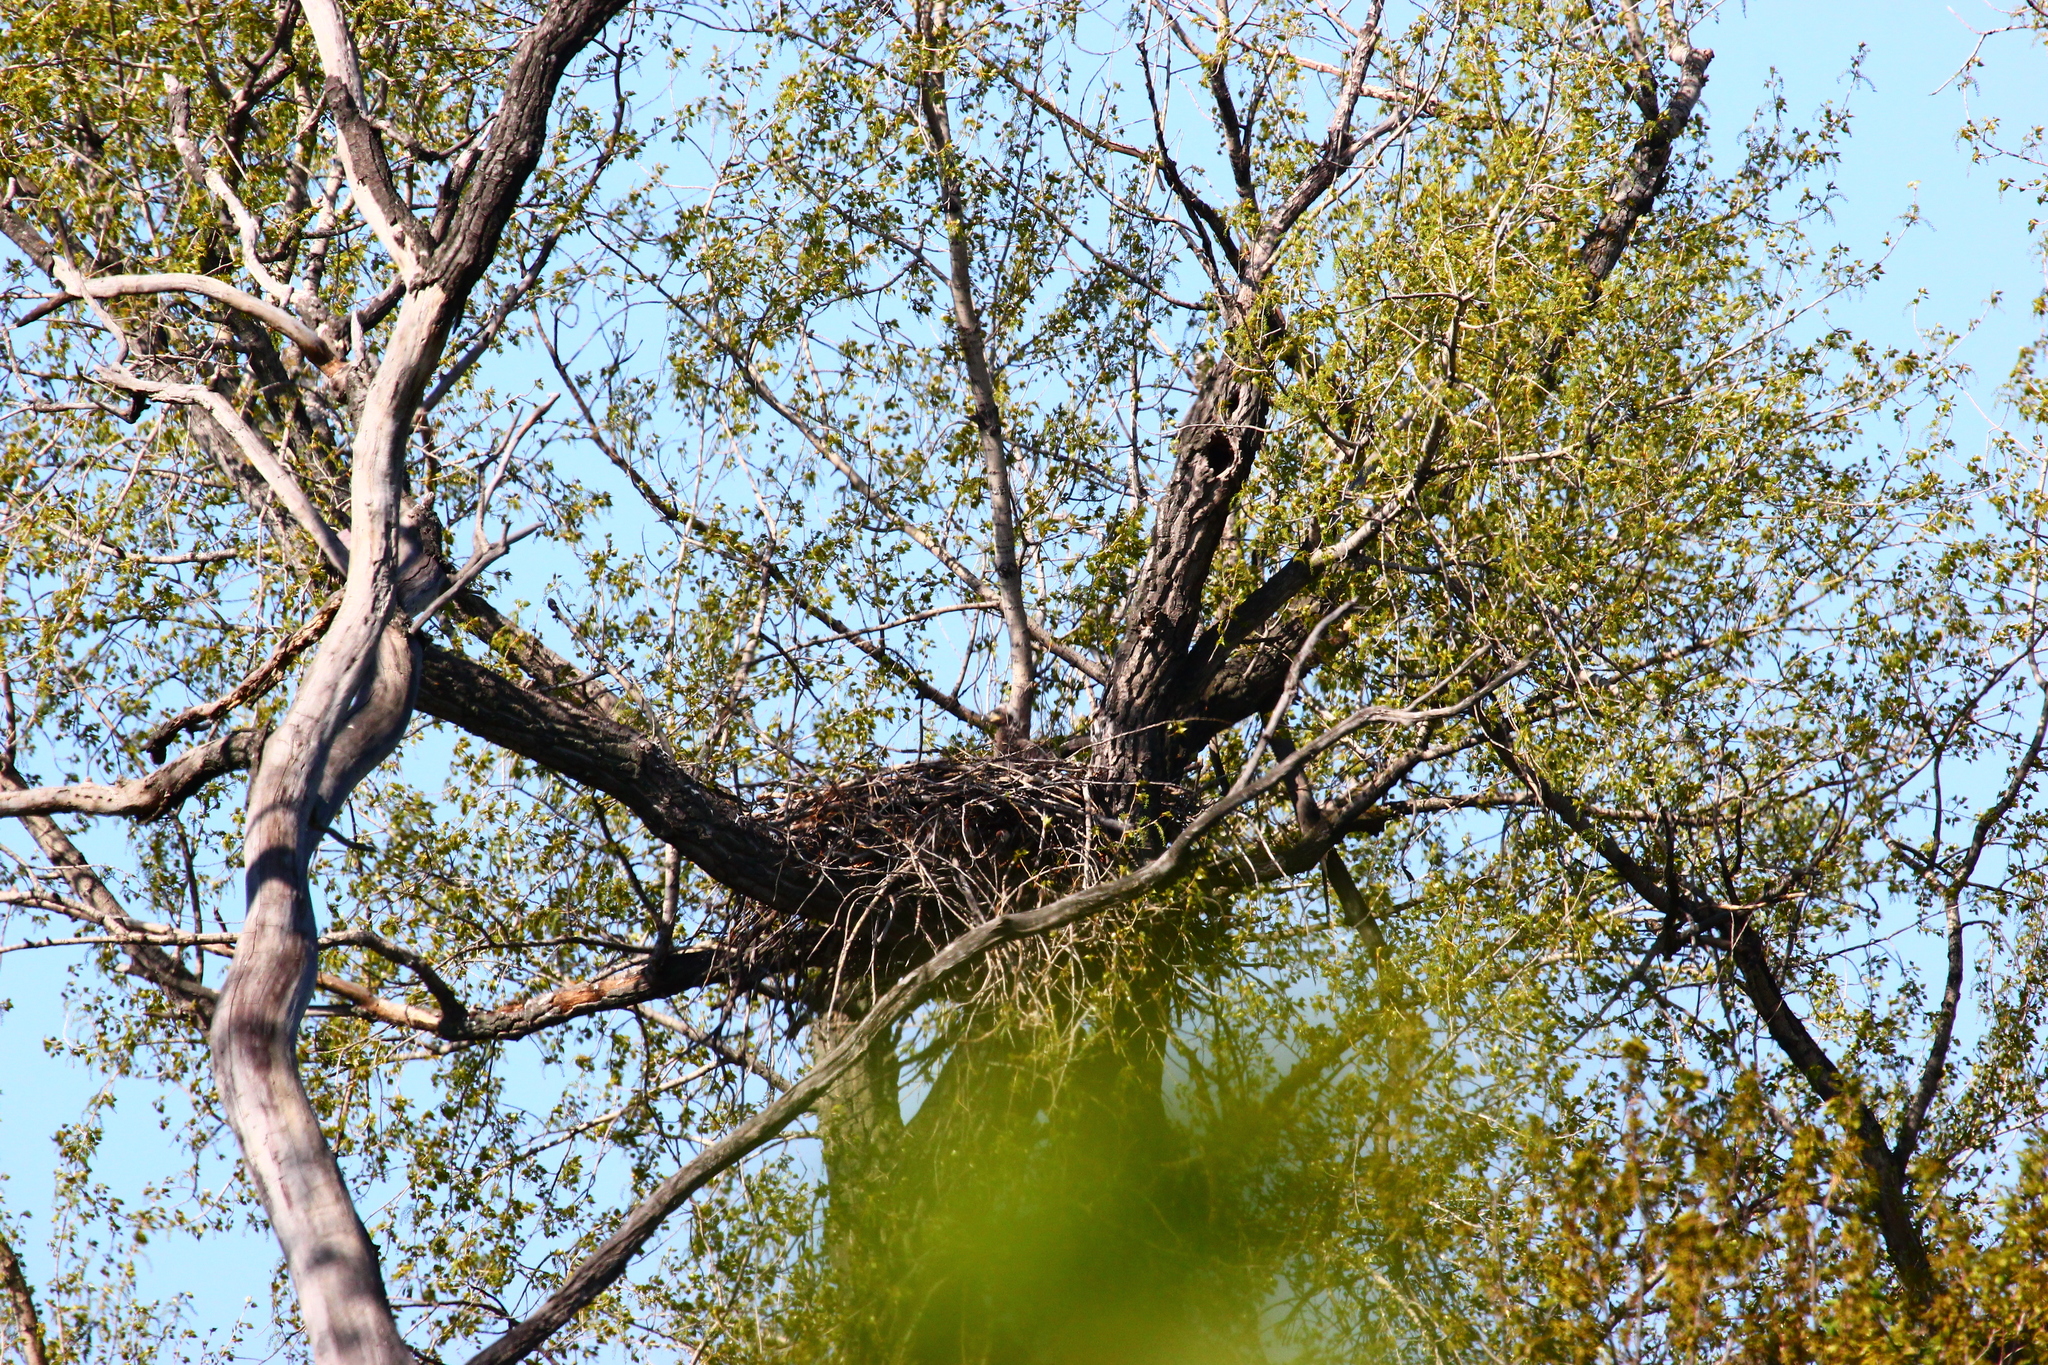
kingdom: Animalia
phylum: Chordata
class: Aves
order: Accipitriformes
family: Accipitridae
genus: Haliaeetus
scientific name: Haliaeetus albicilla
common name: White-tailed eagle
